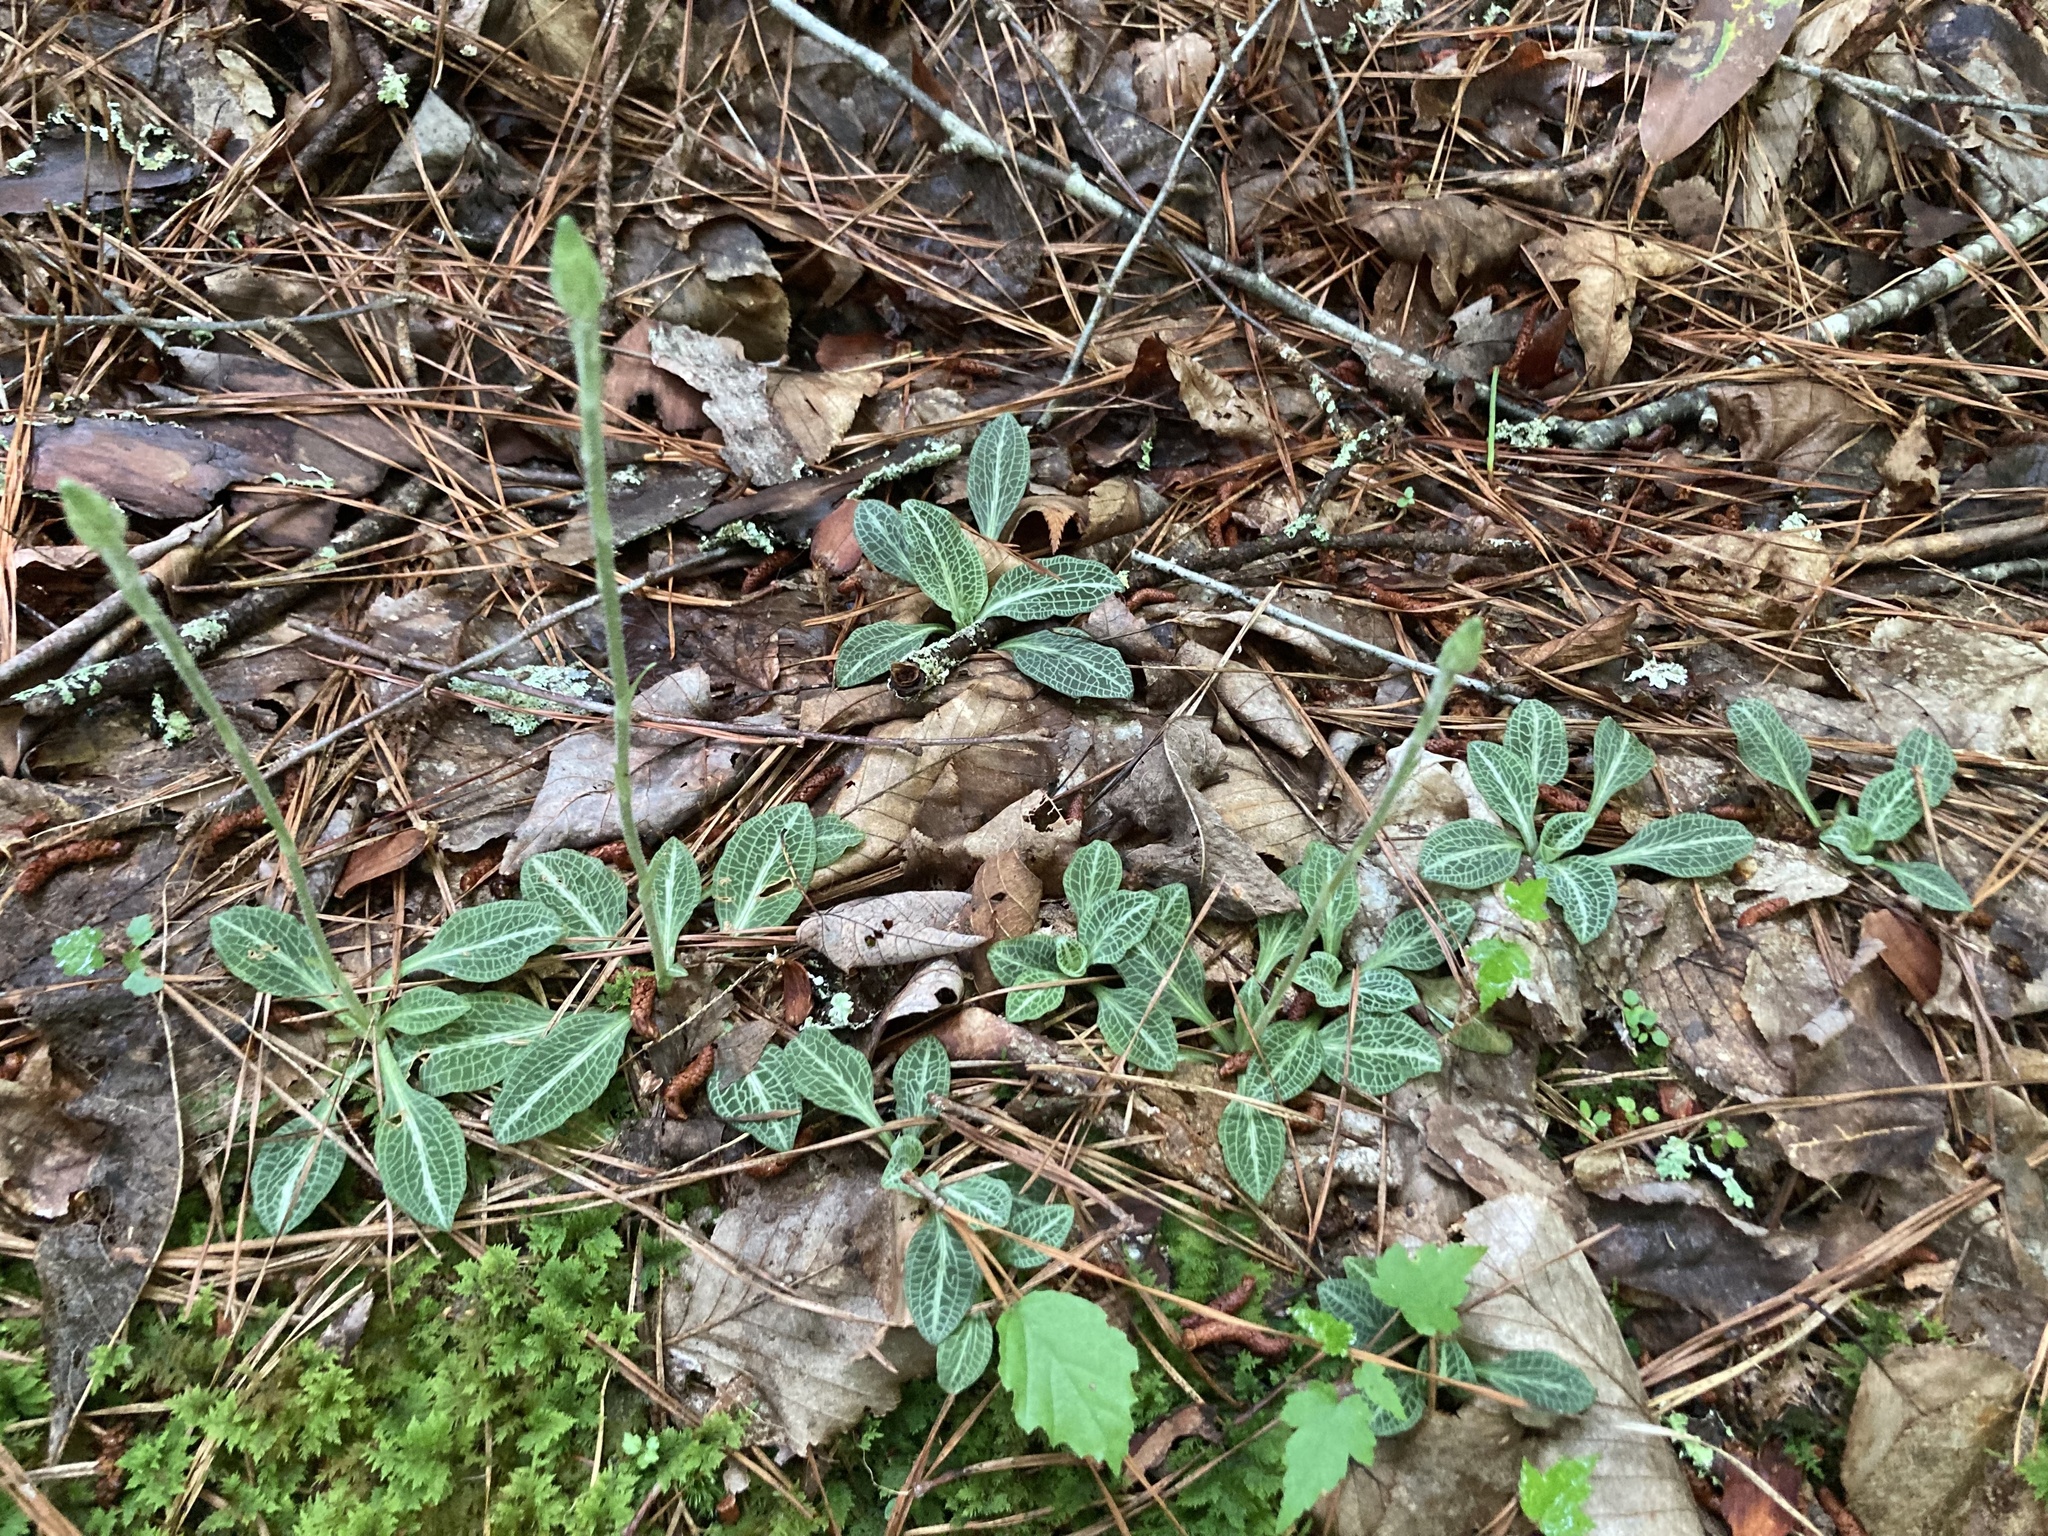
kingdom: Plantae
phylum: Tracheophyta
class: Liliopsida
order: Asparagales
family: Orchidaceae
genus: Goodyera
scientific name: Goodyera pubescens
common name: Downy rattlesnake-plantain
